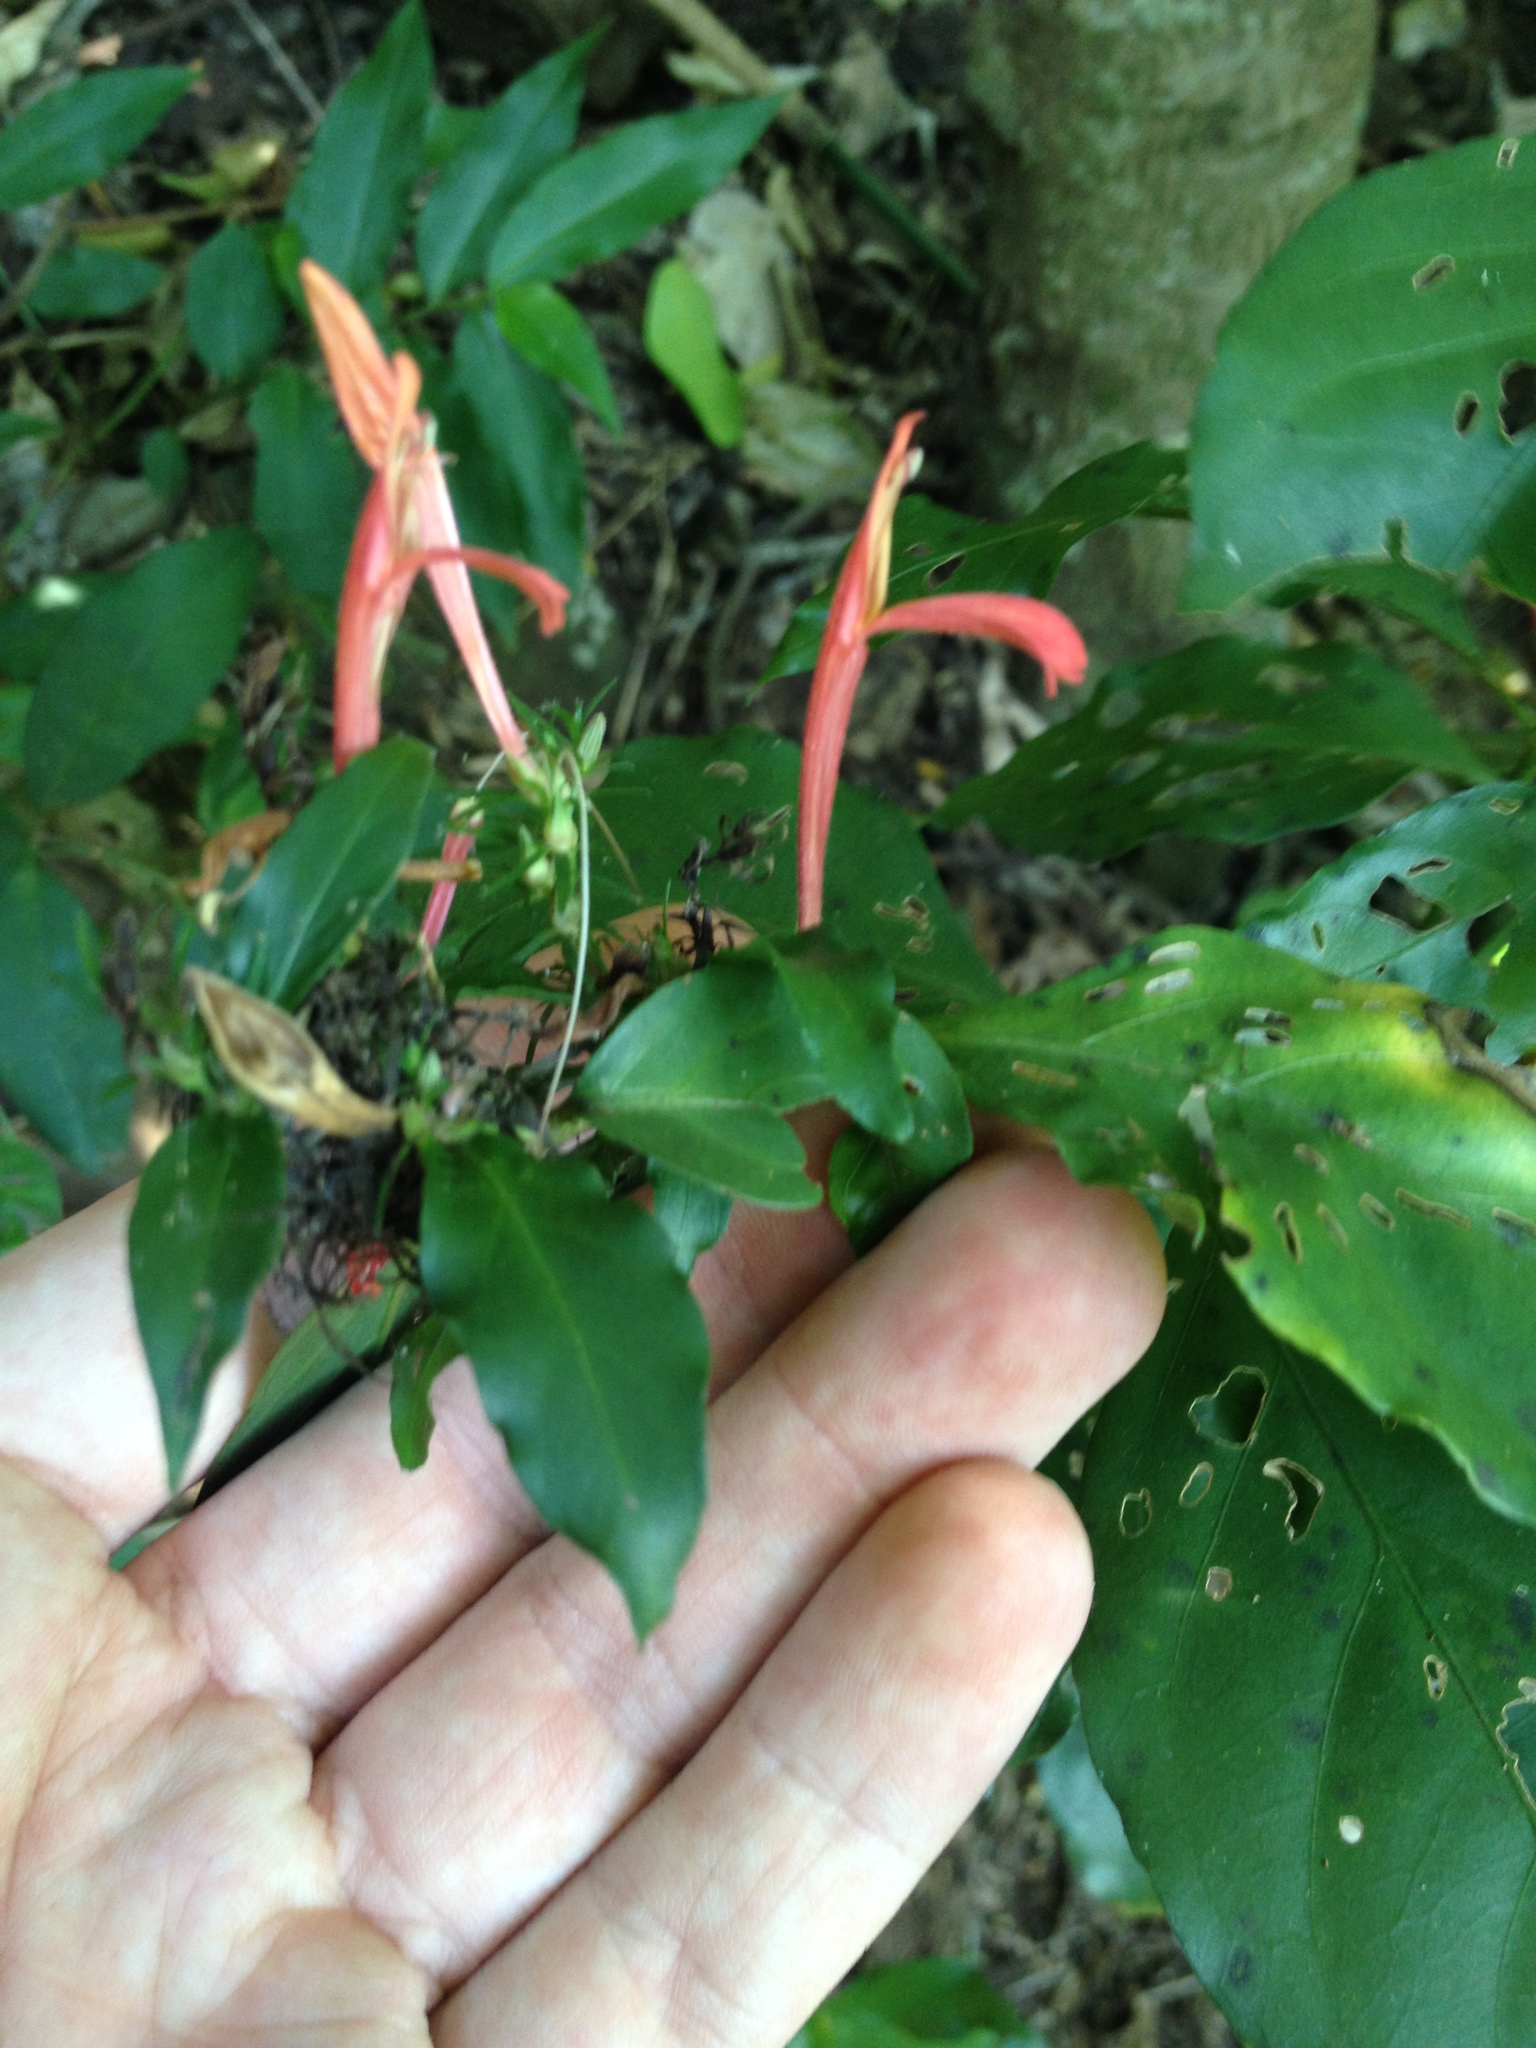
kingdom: Plantae
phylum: Tracheophyta
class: Magnoliopsida
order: Lamiales
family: Acanthaceae
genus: Justicia
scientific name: Justicia brasiliana
